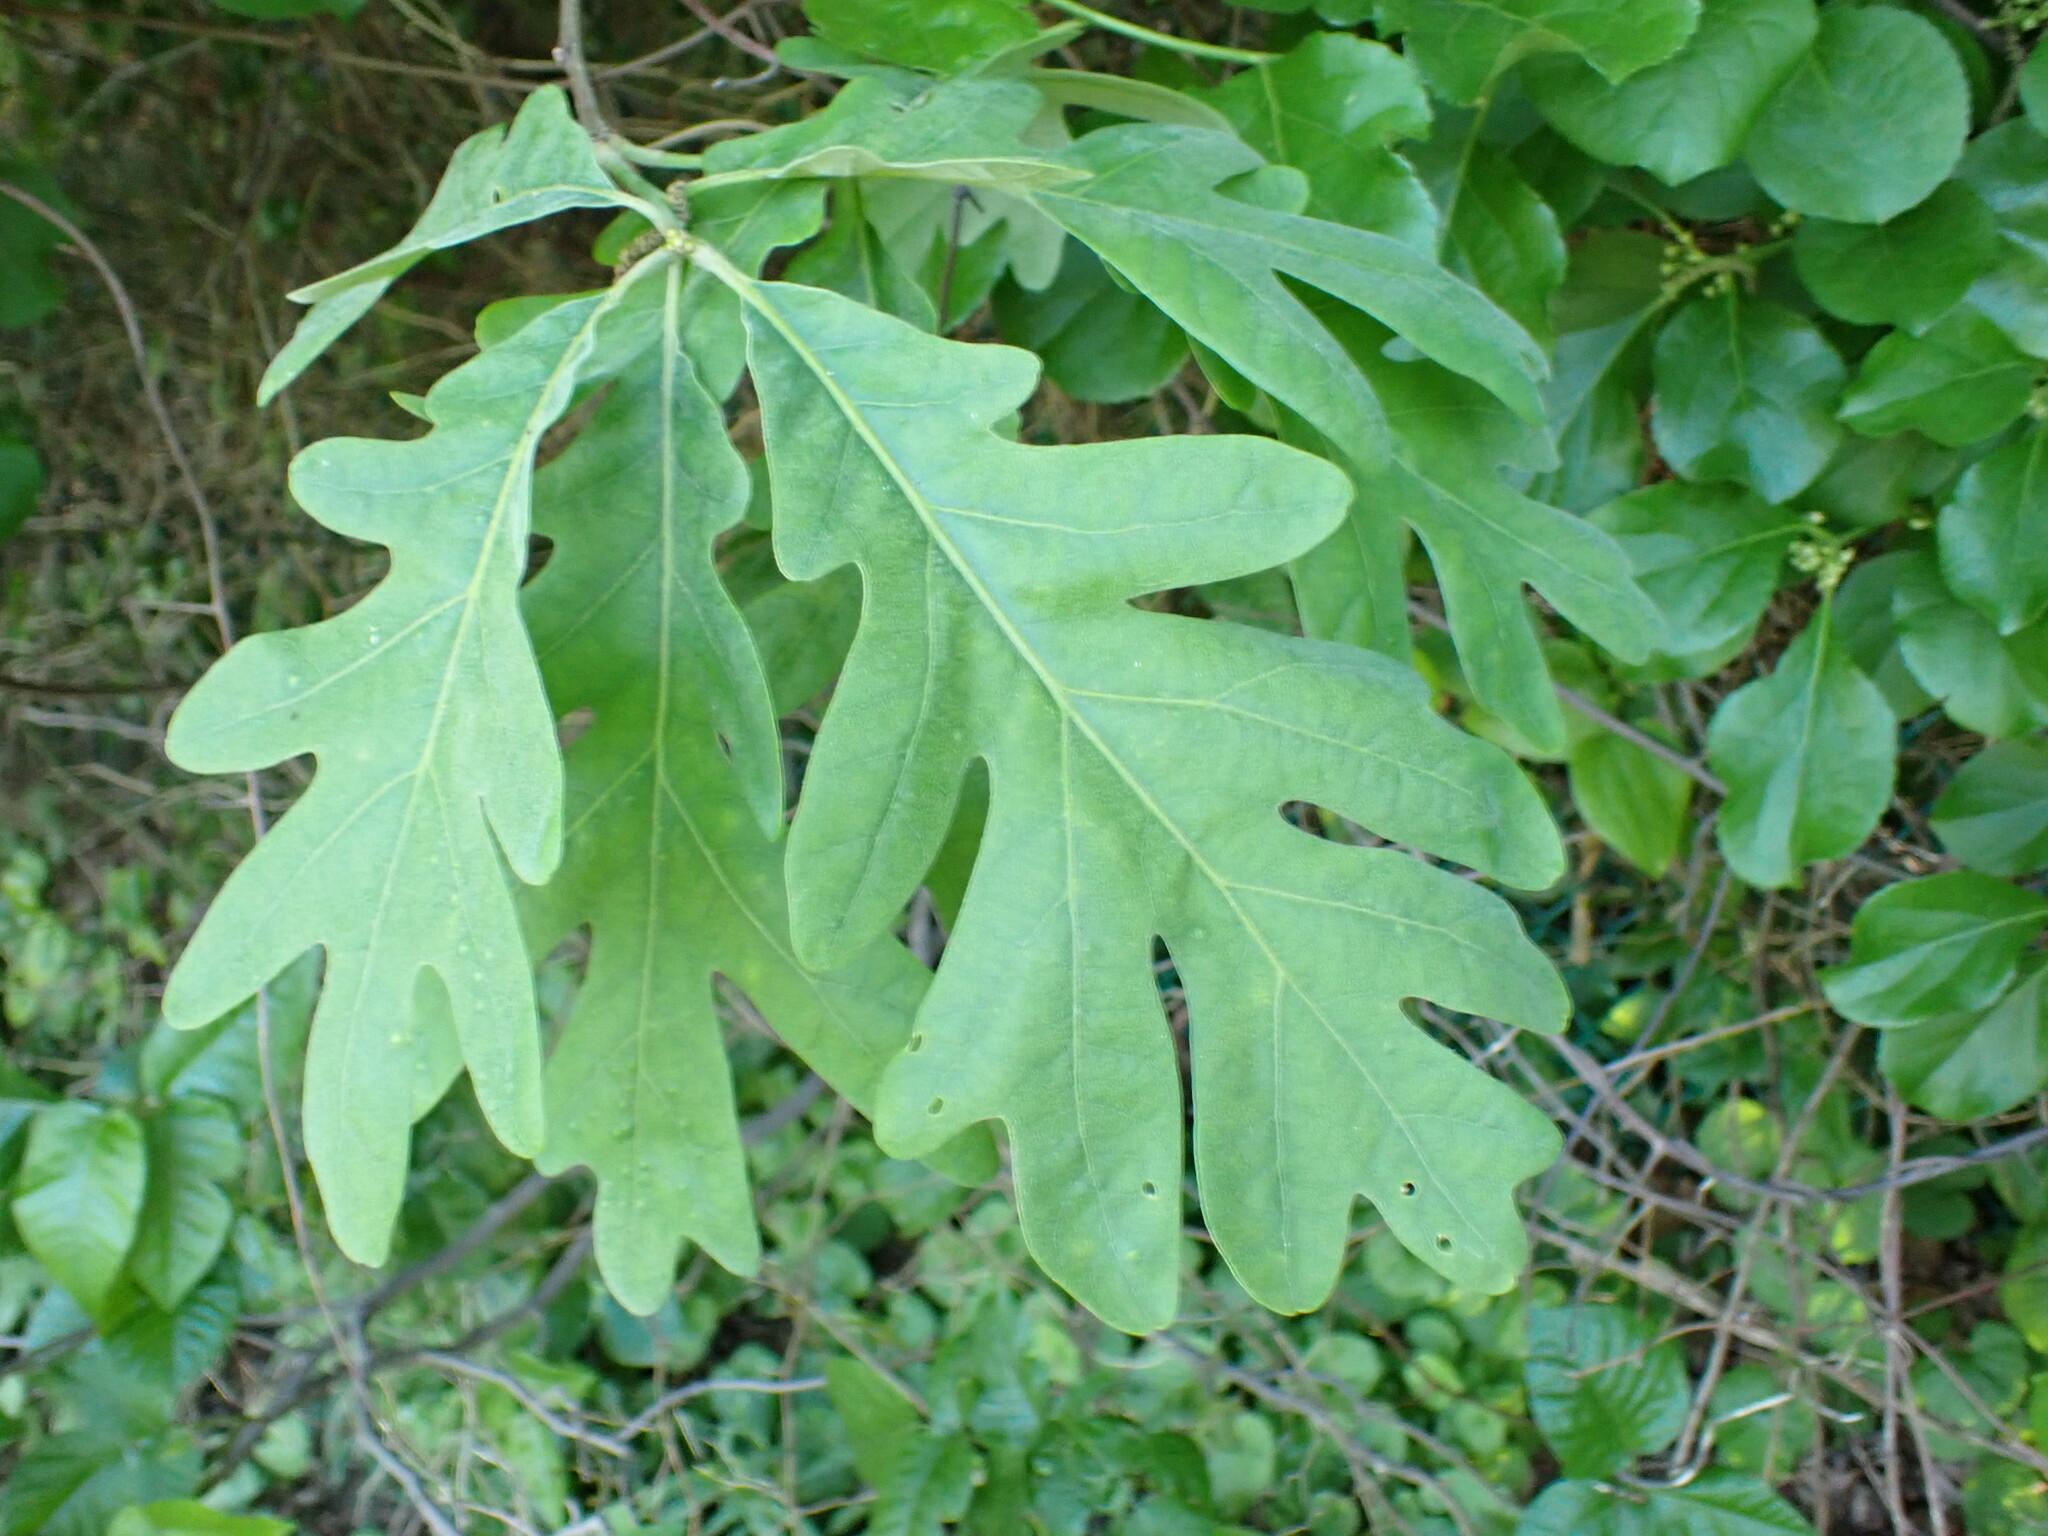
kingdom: Animalia
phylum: Arthropoda
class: Insecta
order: Hymenoptera
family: Cynipidae
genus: Neuroterus
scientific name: Neuroterus
